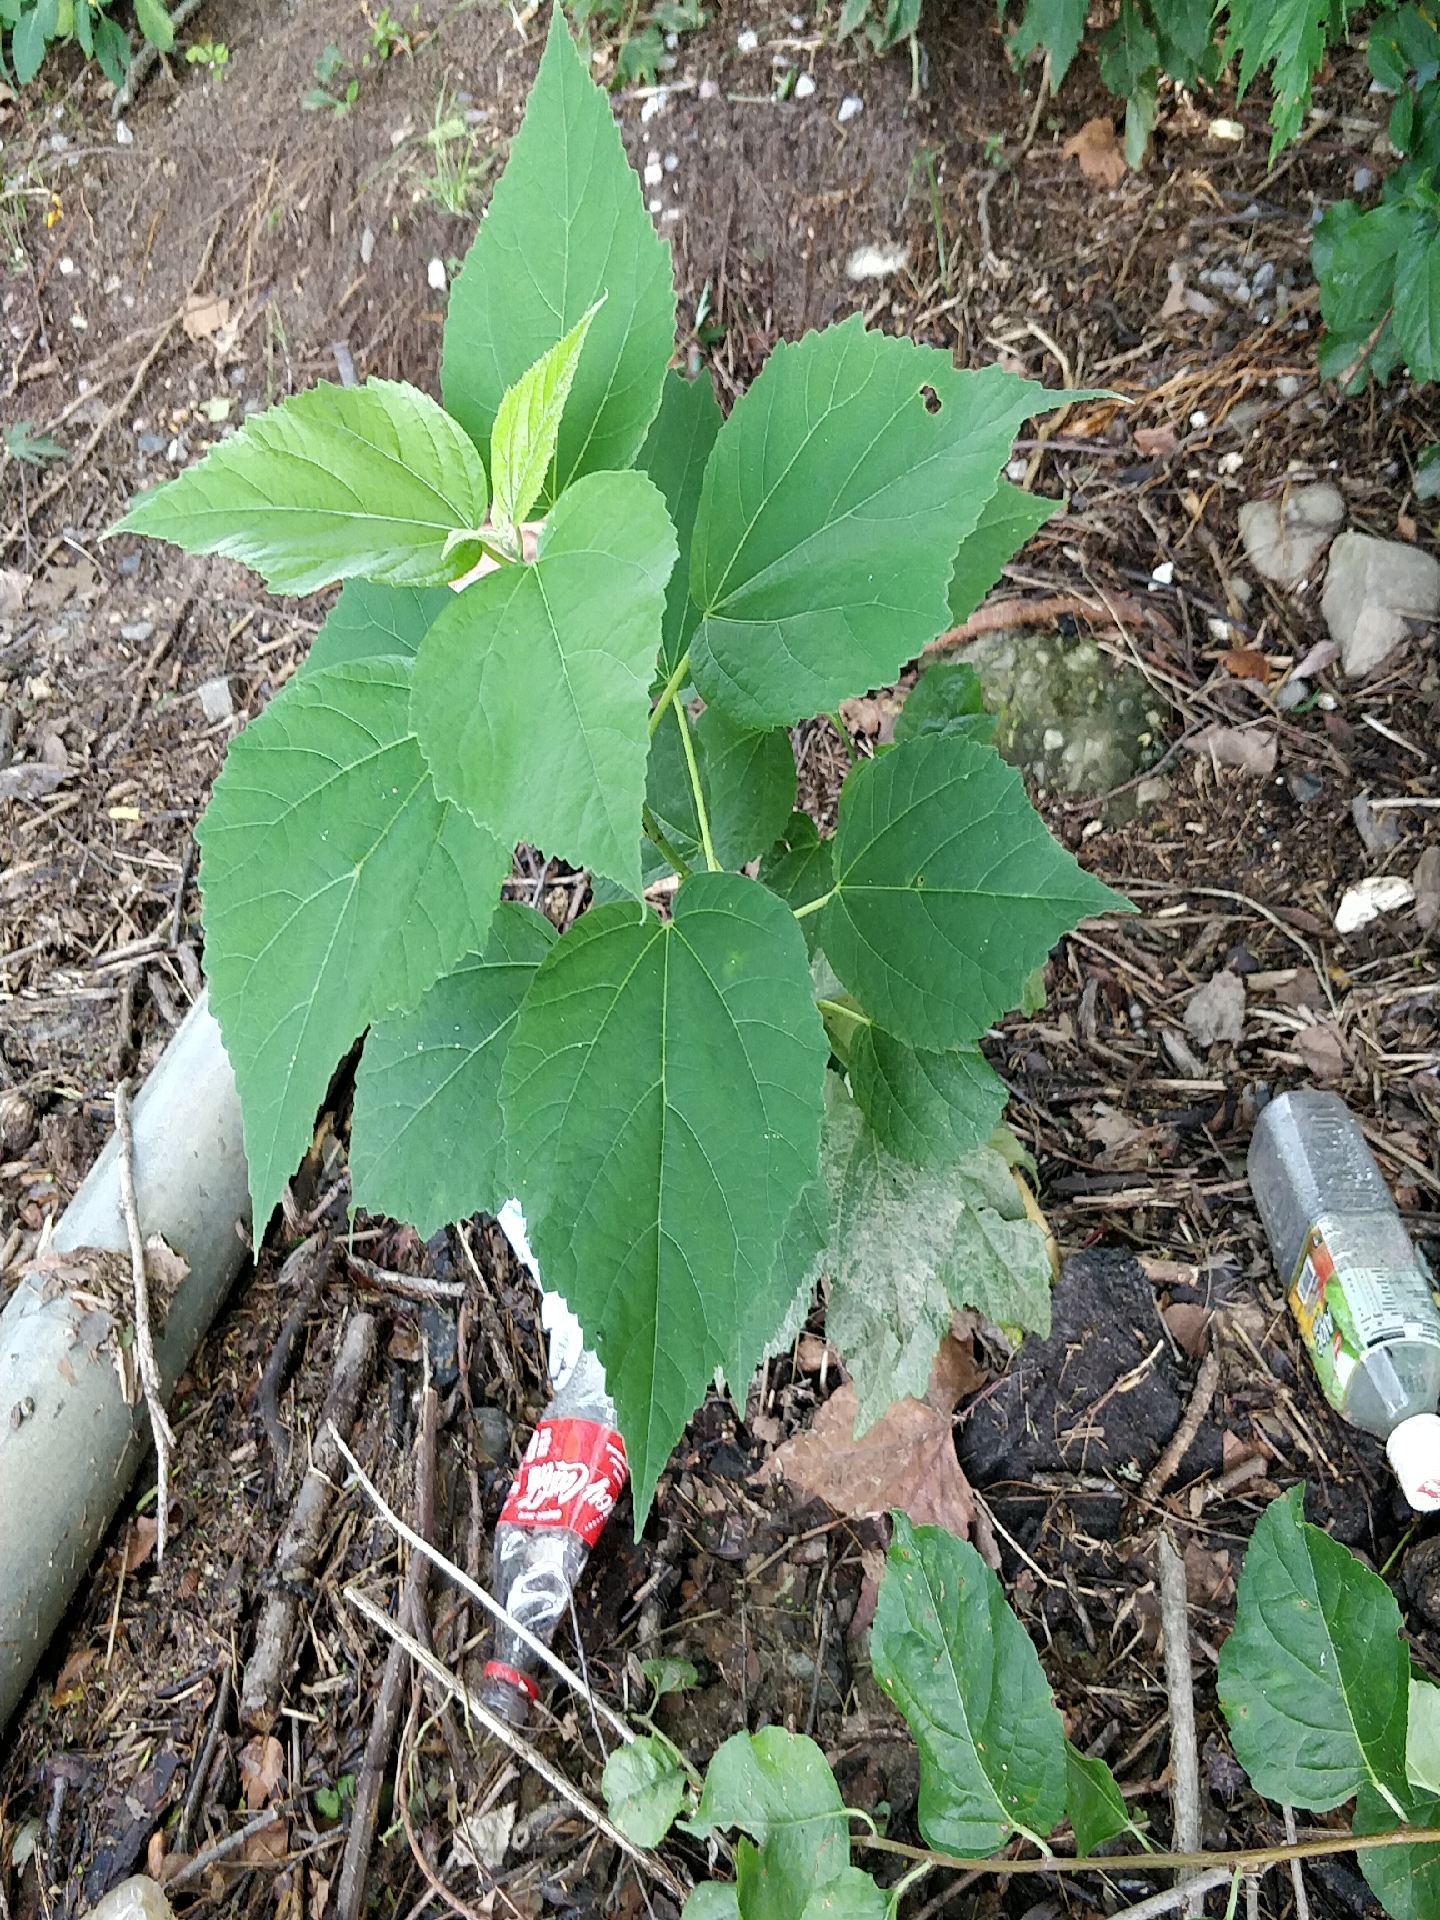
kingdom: Plantae
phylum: Tracheophyta
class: Magnoliopsida
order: Malvales
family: Malvaceae
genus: Hibiscus
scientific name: Hibiscus moscheutos
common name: Common rose-mallow
